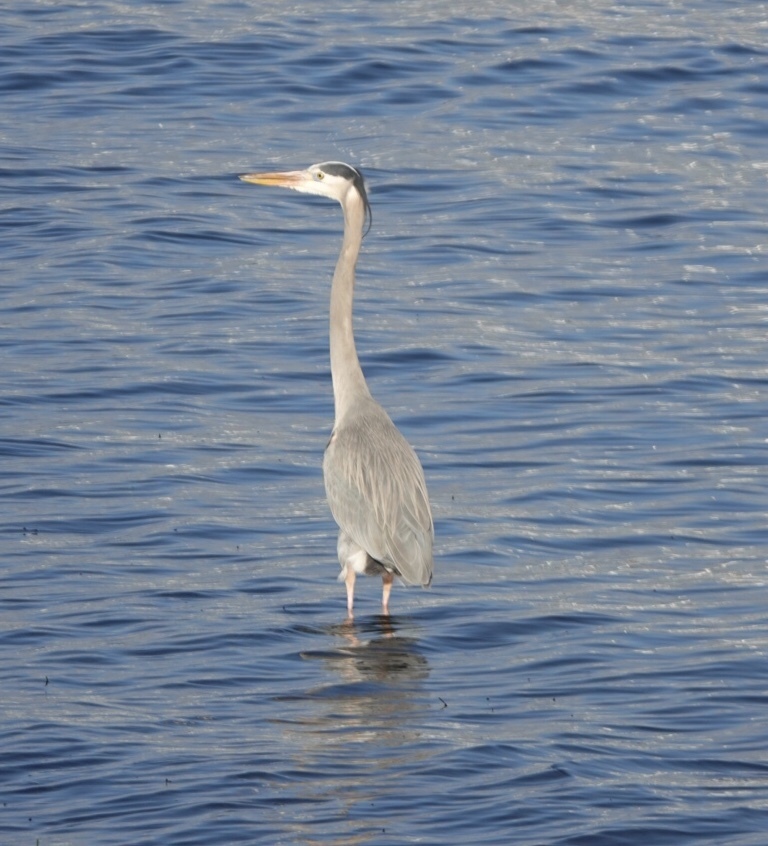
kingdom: Animalia
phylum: Chordata
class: Aves
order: Pelecaniformes
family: Ardeidae
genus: Ardea
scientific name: Ardea herodias
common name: Great blue heron
